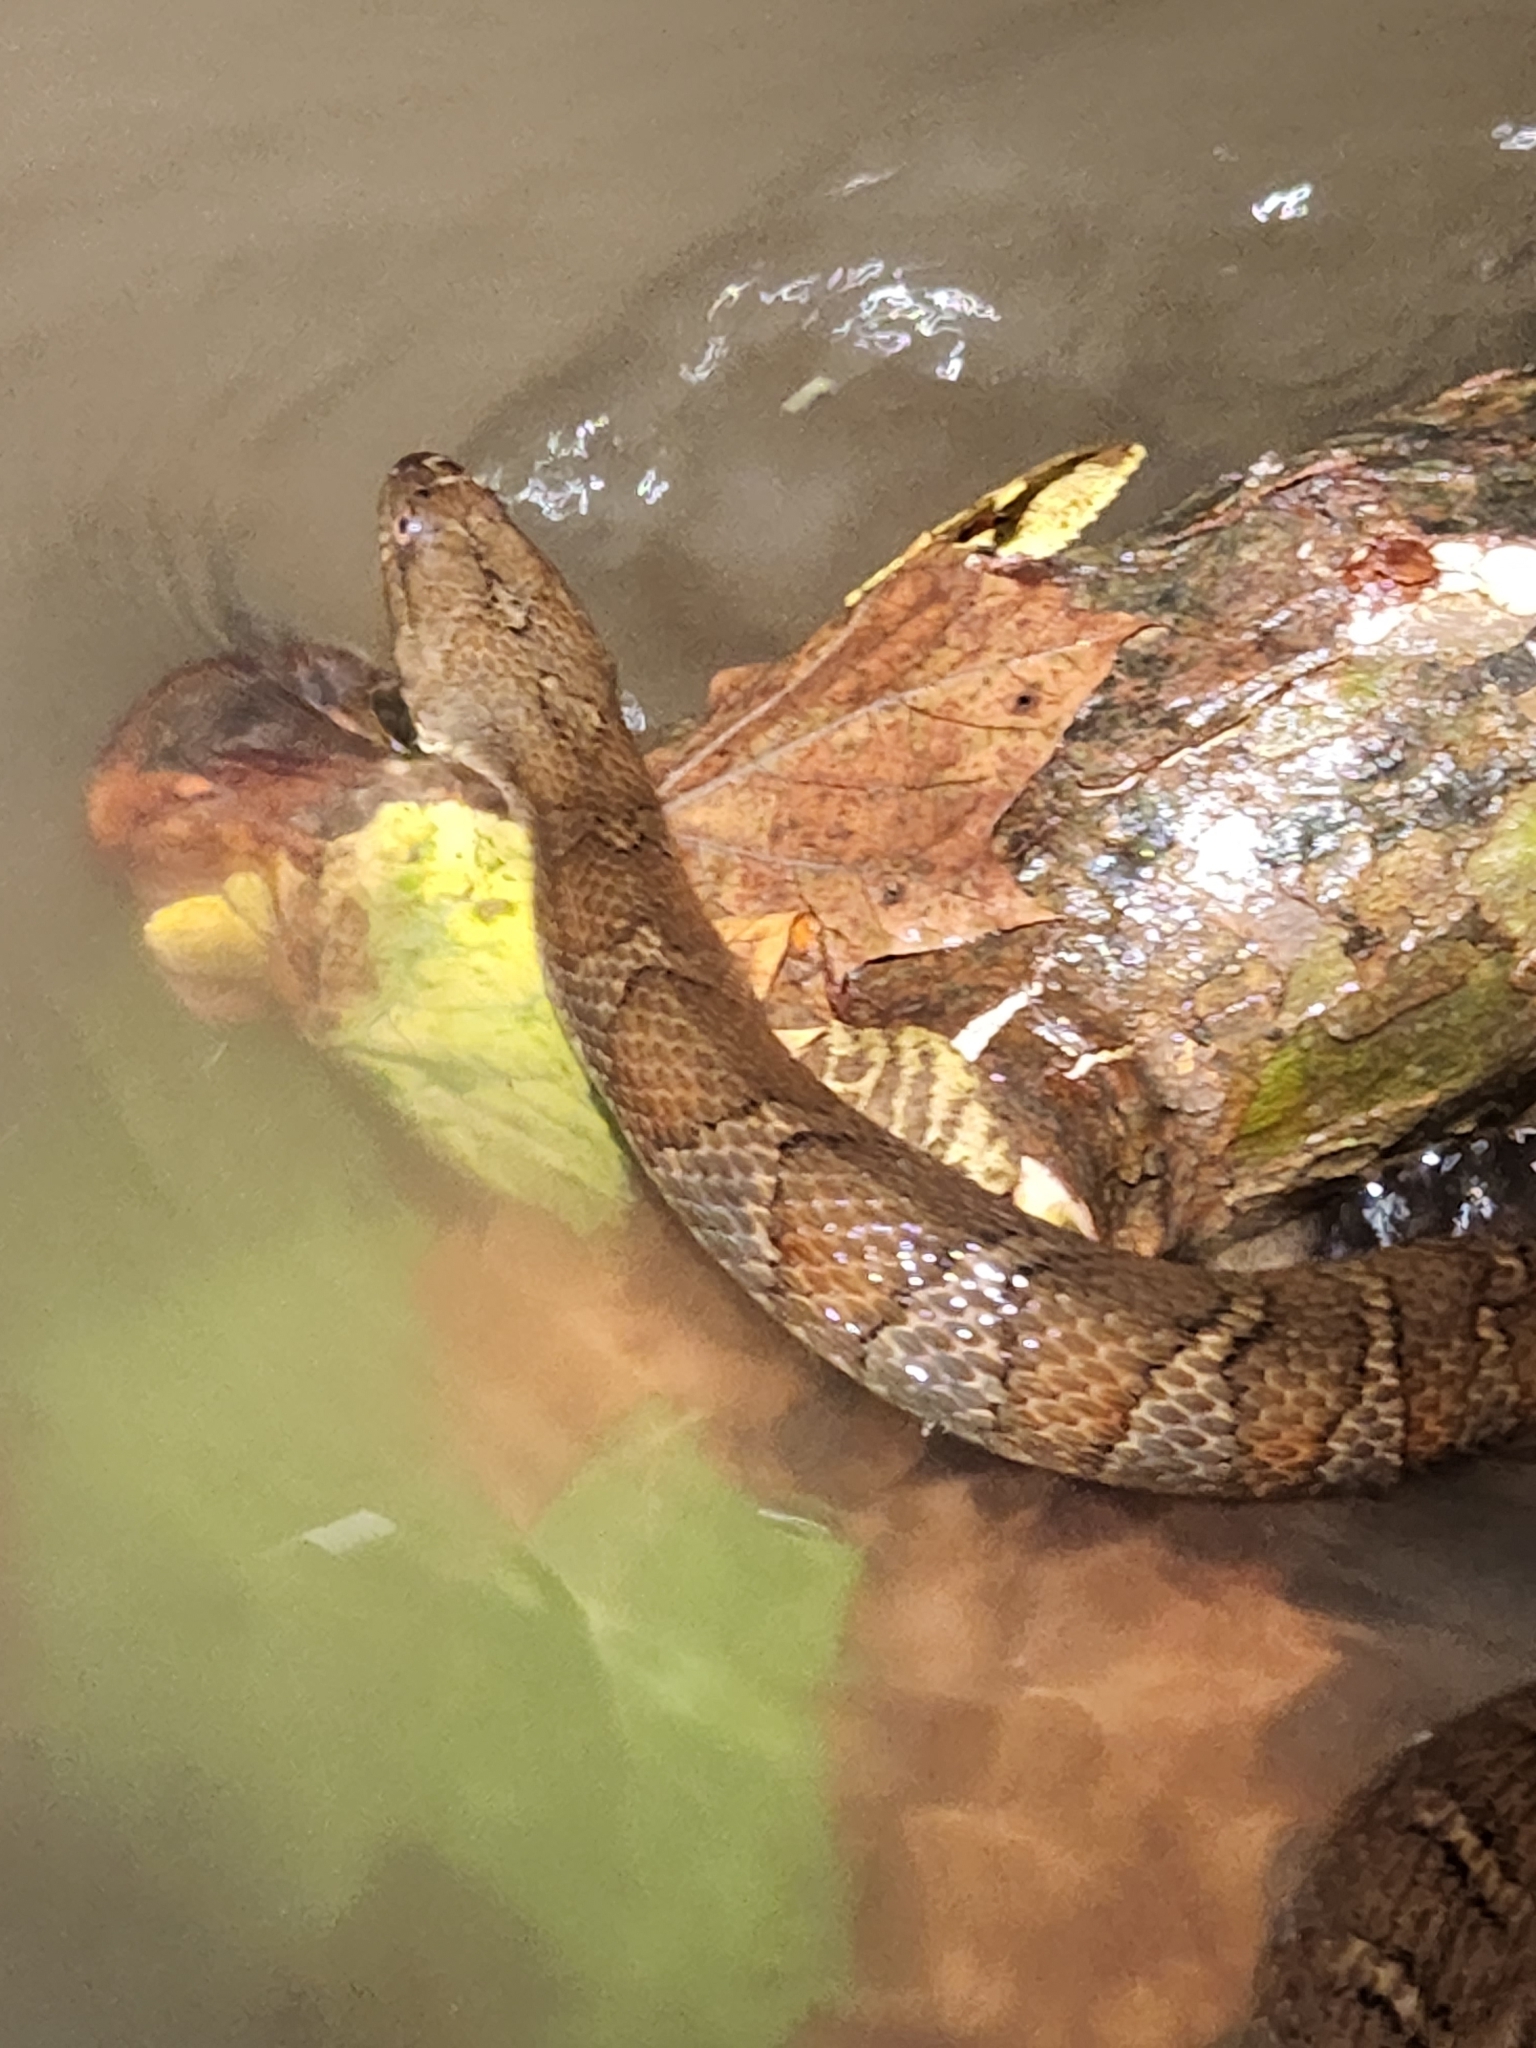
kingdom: Animalia
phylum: Chordata
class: Squamata
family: Colubridae
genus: Nerodia
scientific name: Nerodia sipedon
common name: Northern water snake
